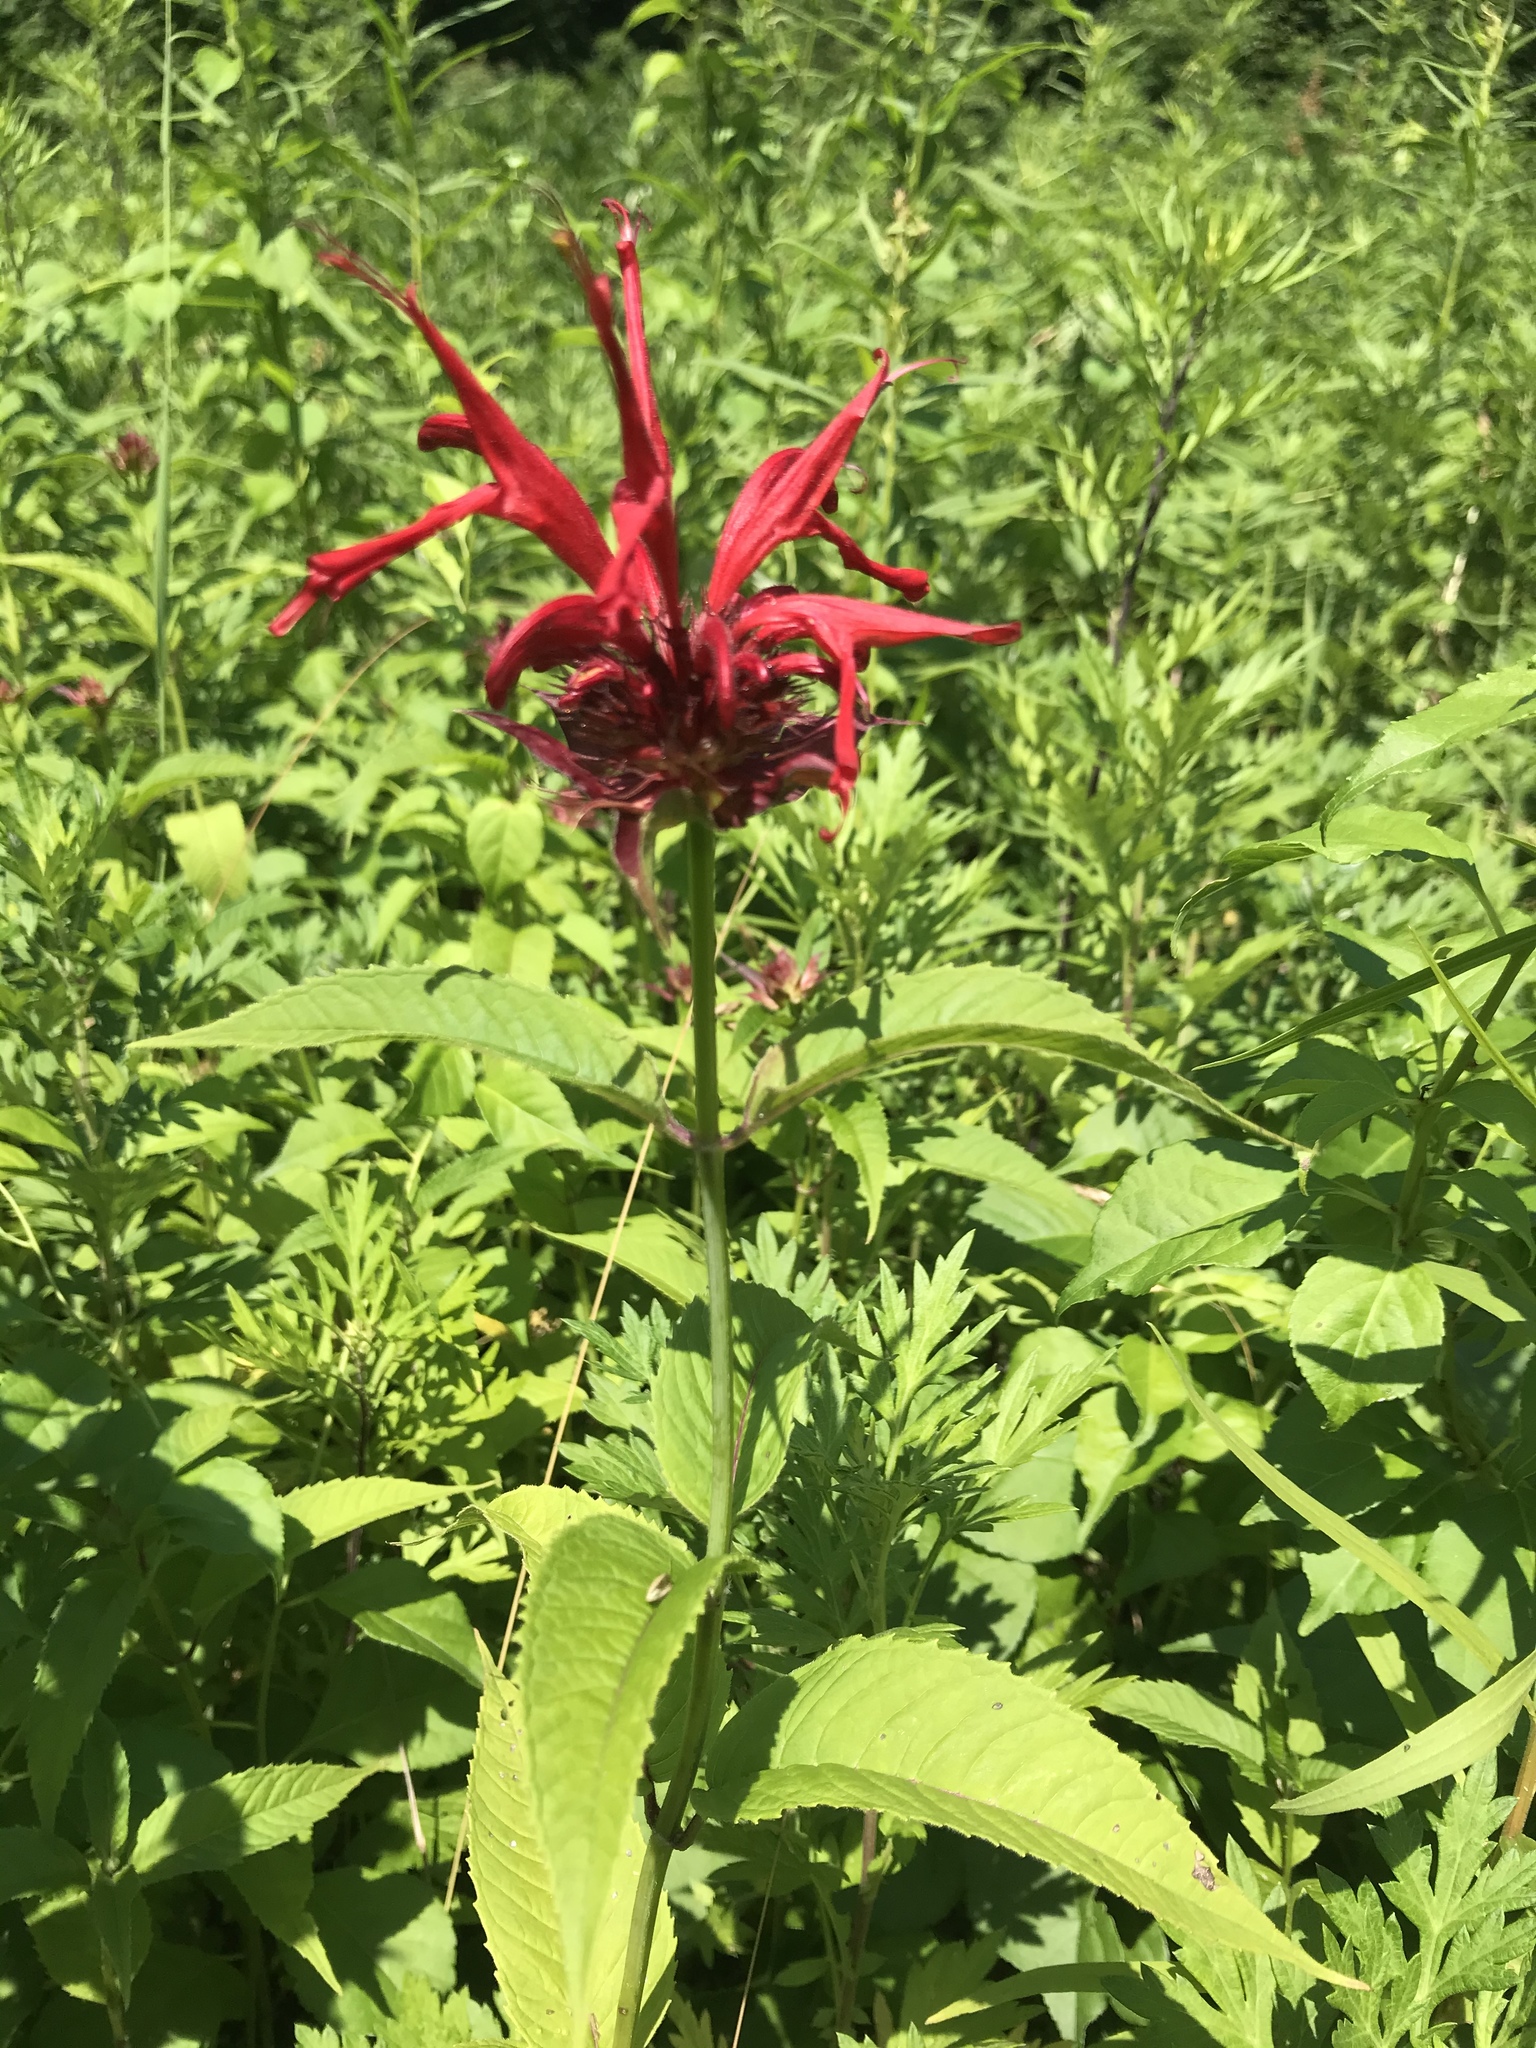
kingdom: Plantae
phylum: Tracheophyta
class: Magnoliopsida
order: Lamiales
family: Lamiaceae
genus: Monarda
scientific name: Monarda didyma
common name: Beebalm
